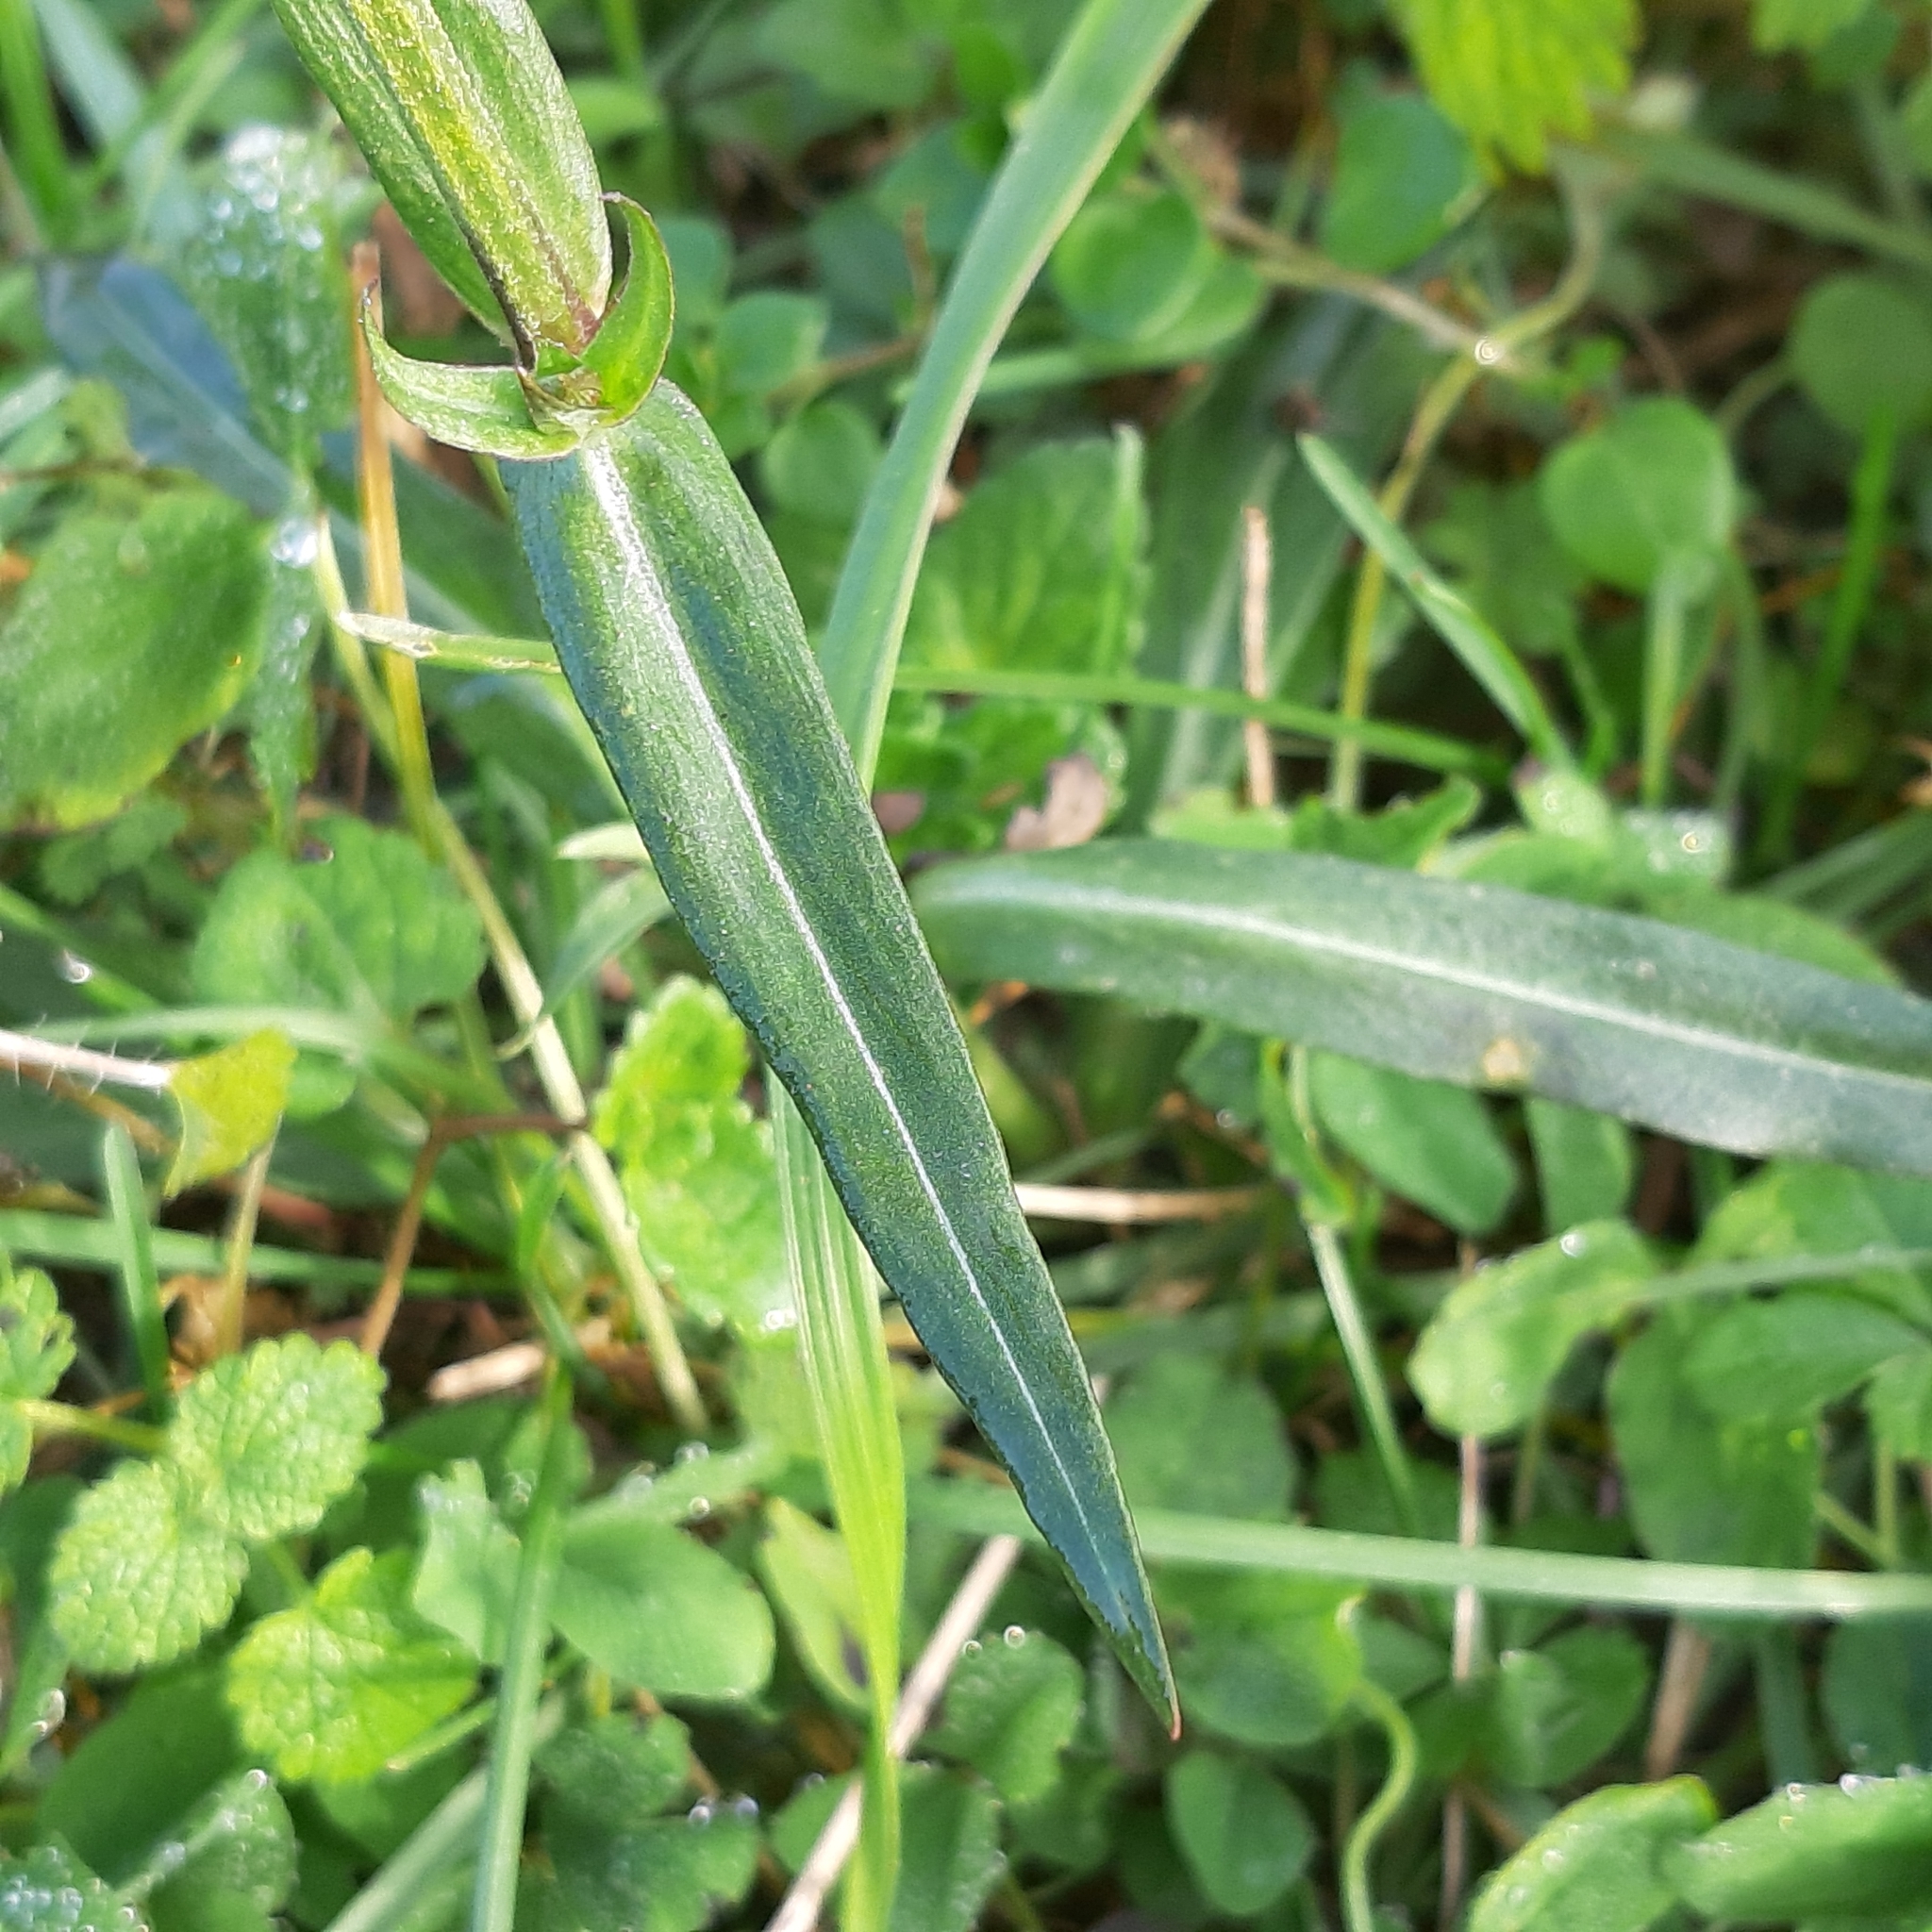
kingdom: Plantae
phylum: Tracheophyta
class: Magnoliopsida
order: Caryophyllales
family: Caryophyllaceae
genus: Silene
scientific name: Silene flos-cuculi
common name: Ragged-robin
